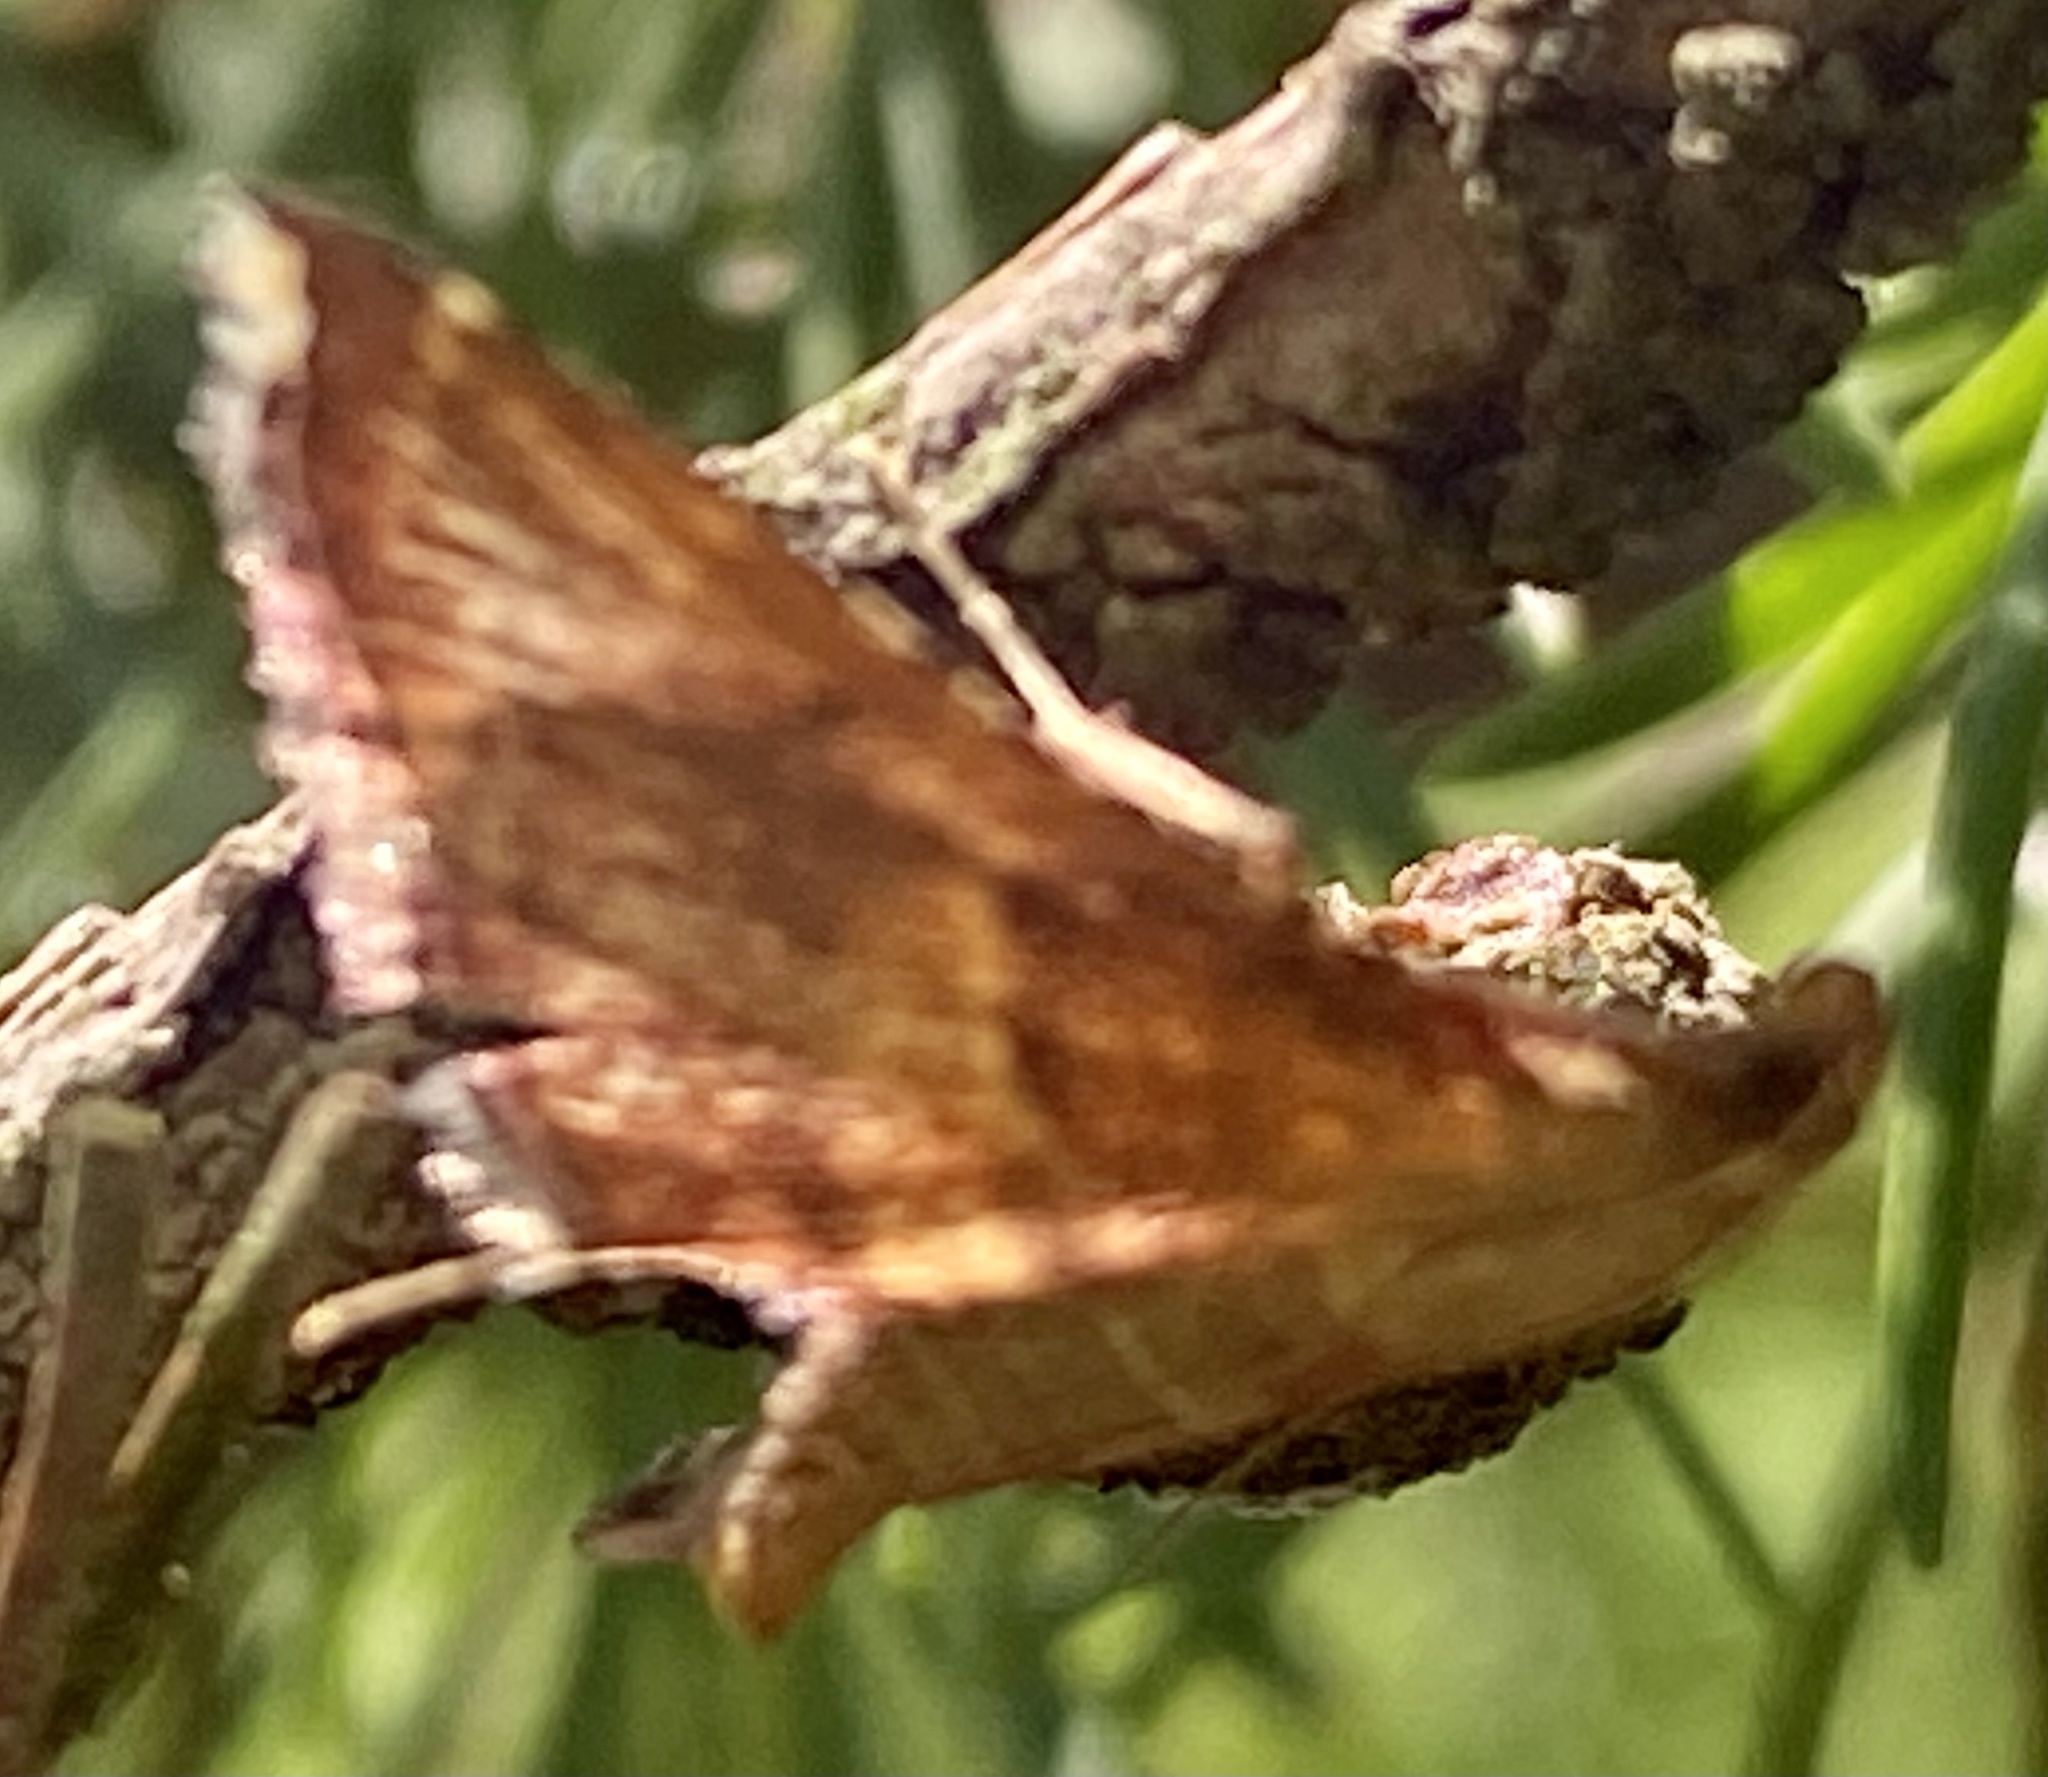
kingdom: Animalia
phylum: Arthropoda
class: Insecta
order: Lepidoptera
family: Pyralidae
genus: Endotricha
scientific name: Endotricha flammealis
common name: Rosy tabby
